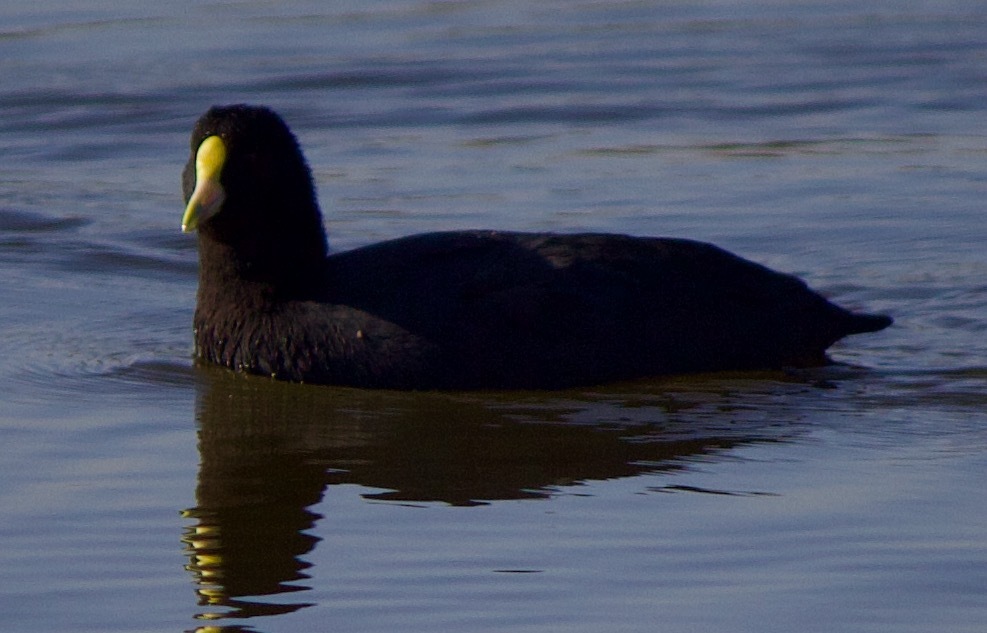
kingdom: Animalia
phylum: Chordata
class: Aves
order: Gruiformes
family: Rallidae
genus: Fulica
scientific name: Fulica leucoptera
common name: White-winged coot
